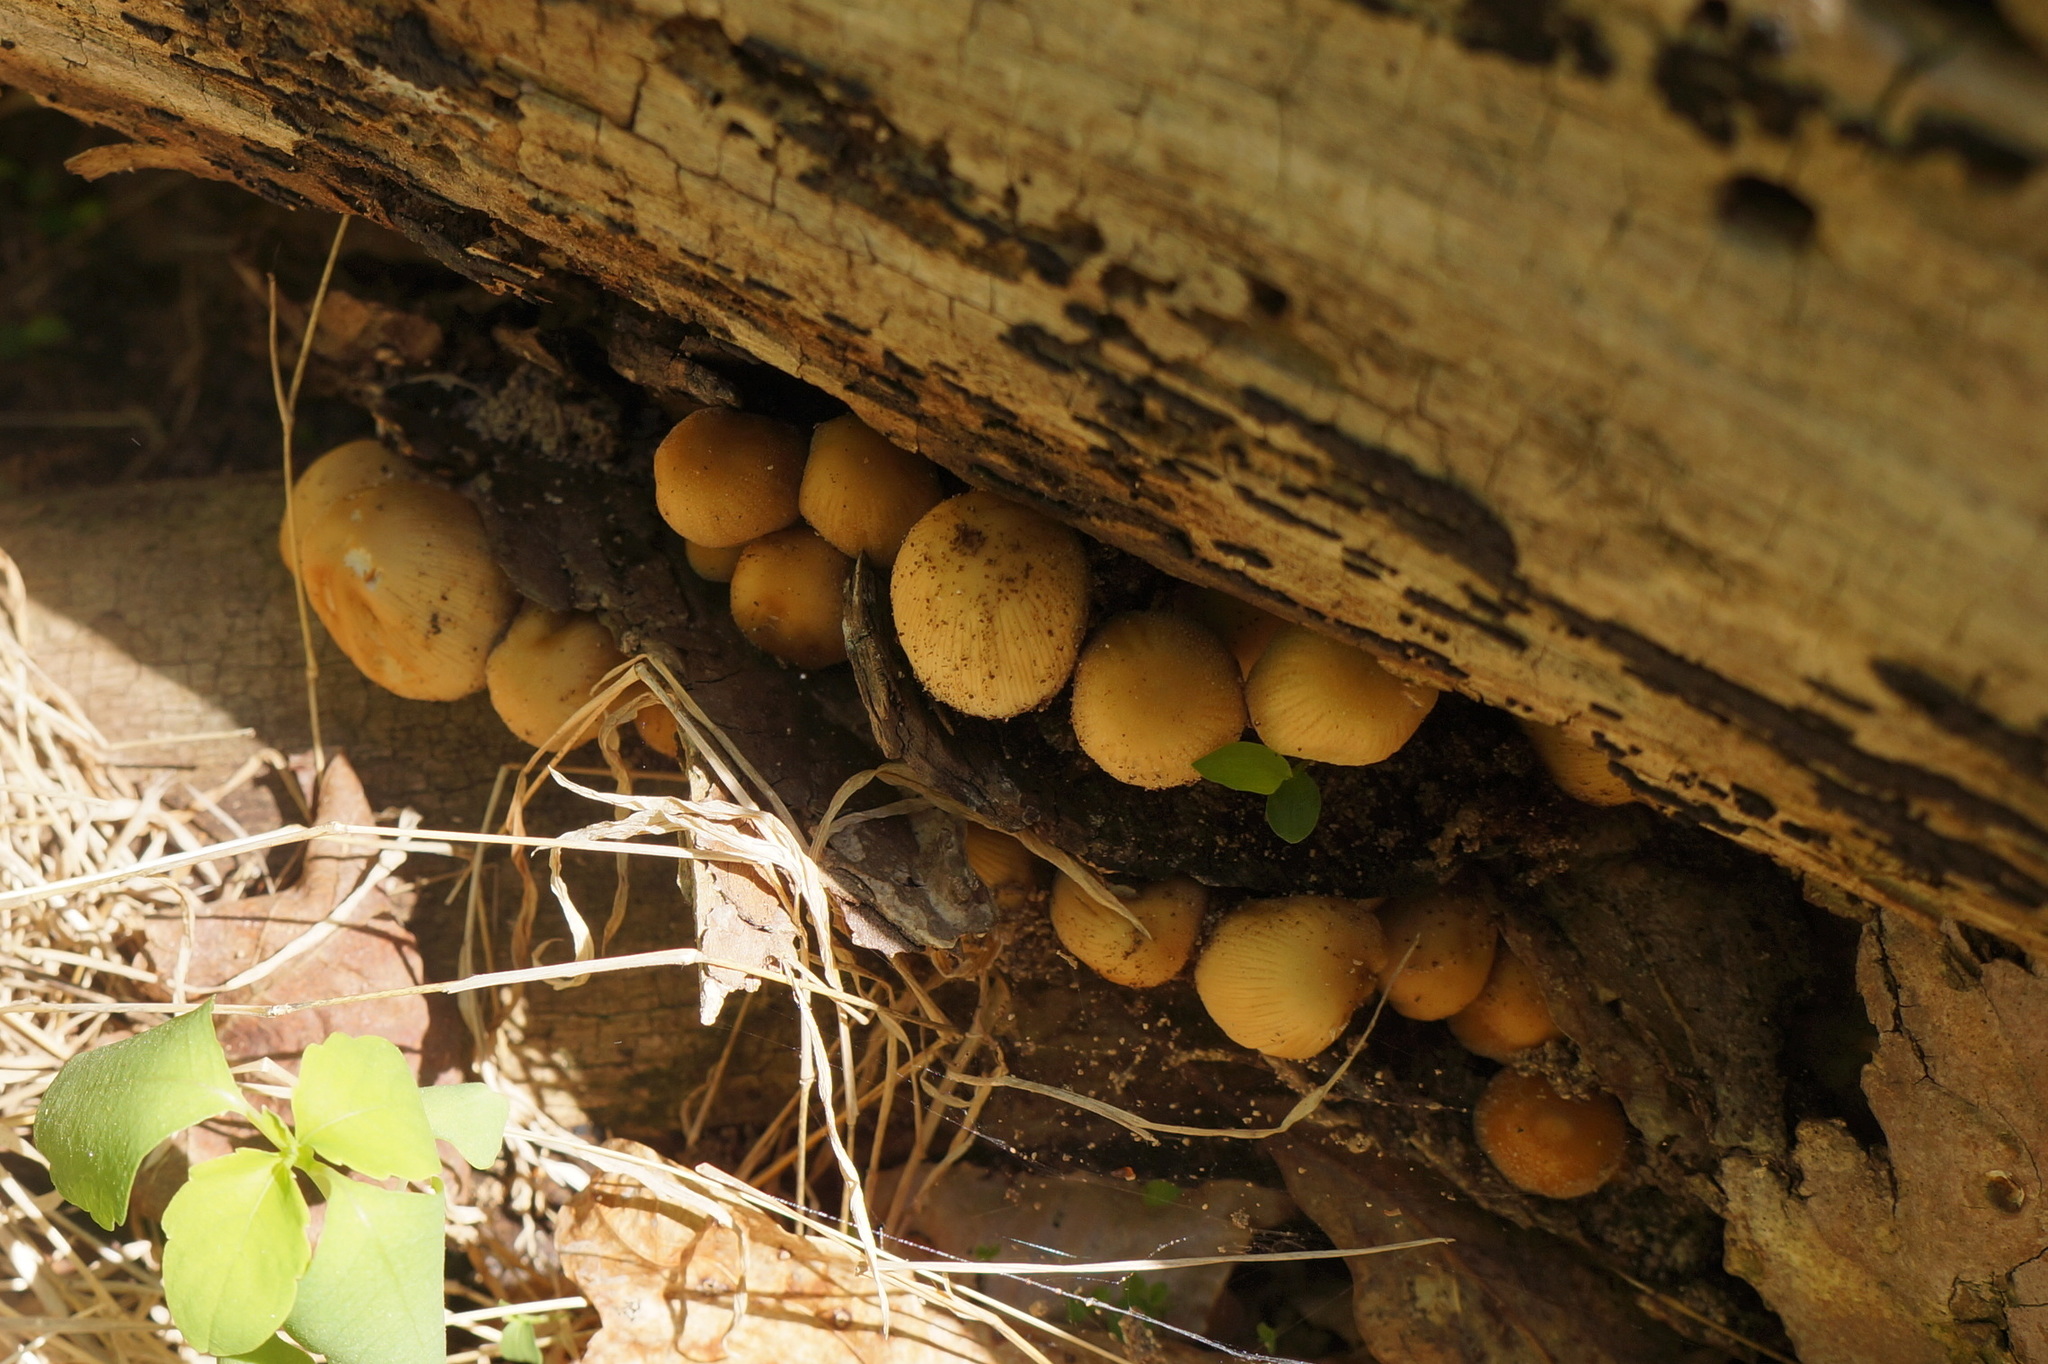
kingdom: Fungi
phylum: Basidiomycota
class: Agaricomycetes
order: Agaricales
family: Psathyrellaceae
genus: Coprinellus
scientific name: Coprinellus micaceus
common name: Glistening ink-cap
